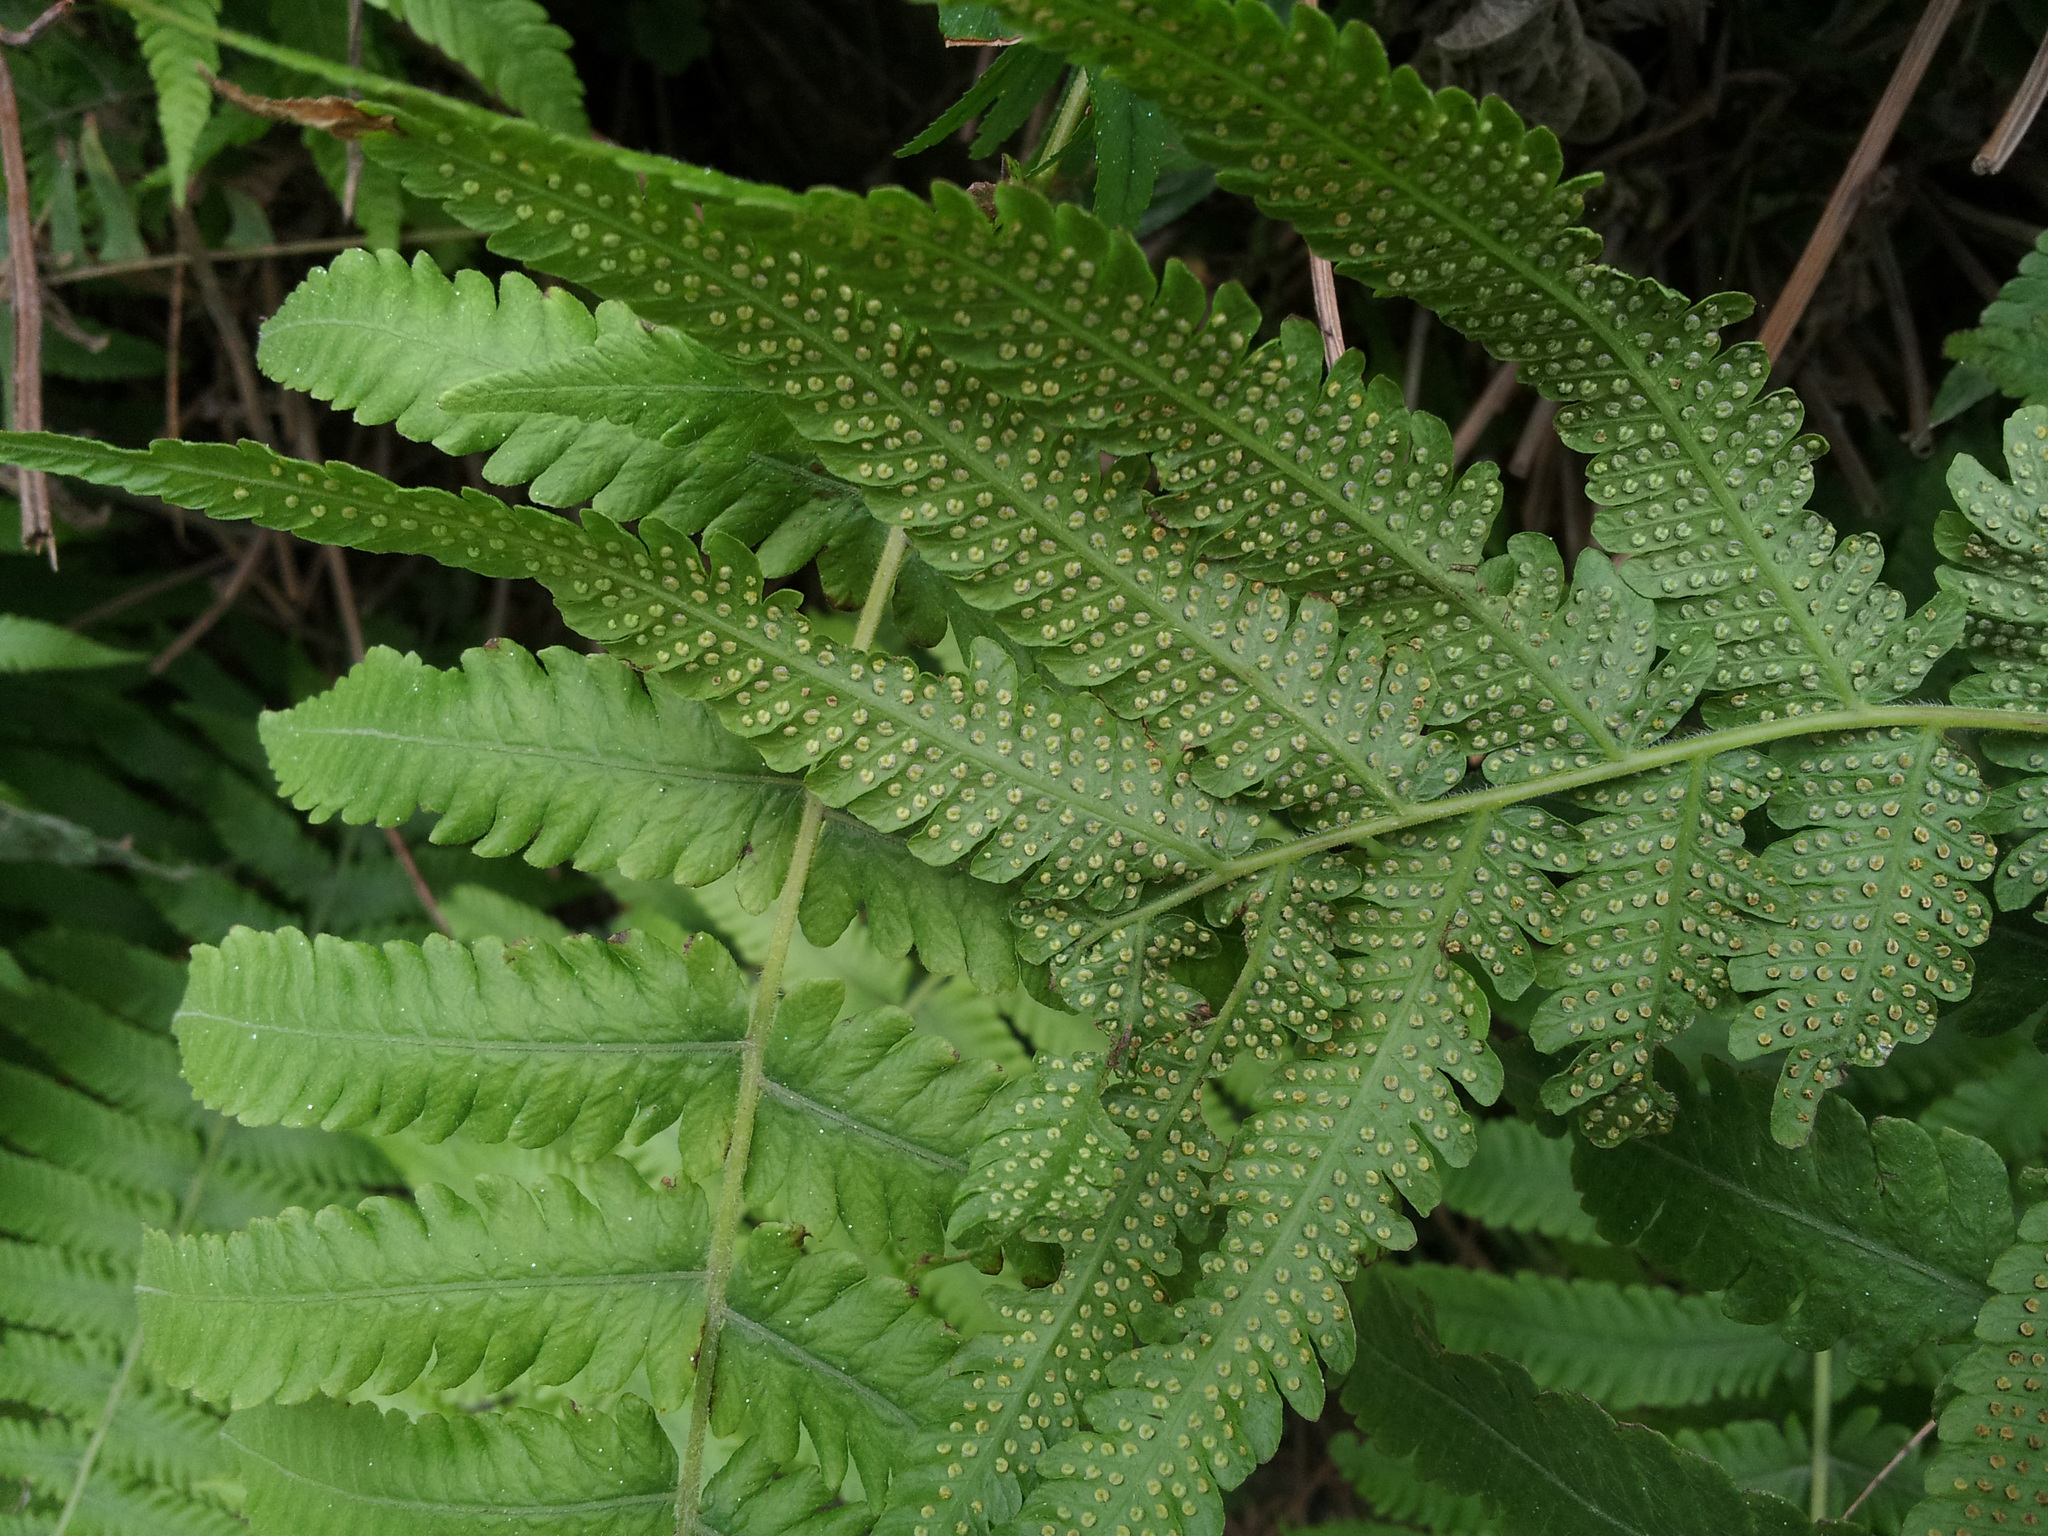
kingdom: Plantae
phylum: Tracheophyta
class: Polypodiopsida
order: Polypodiales
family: Thelypteridaceae
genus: Christella
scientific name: Christella dentata
